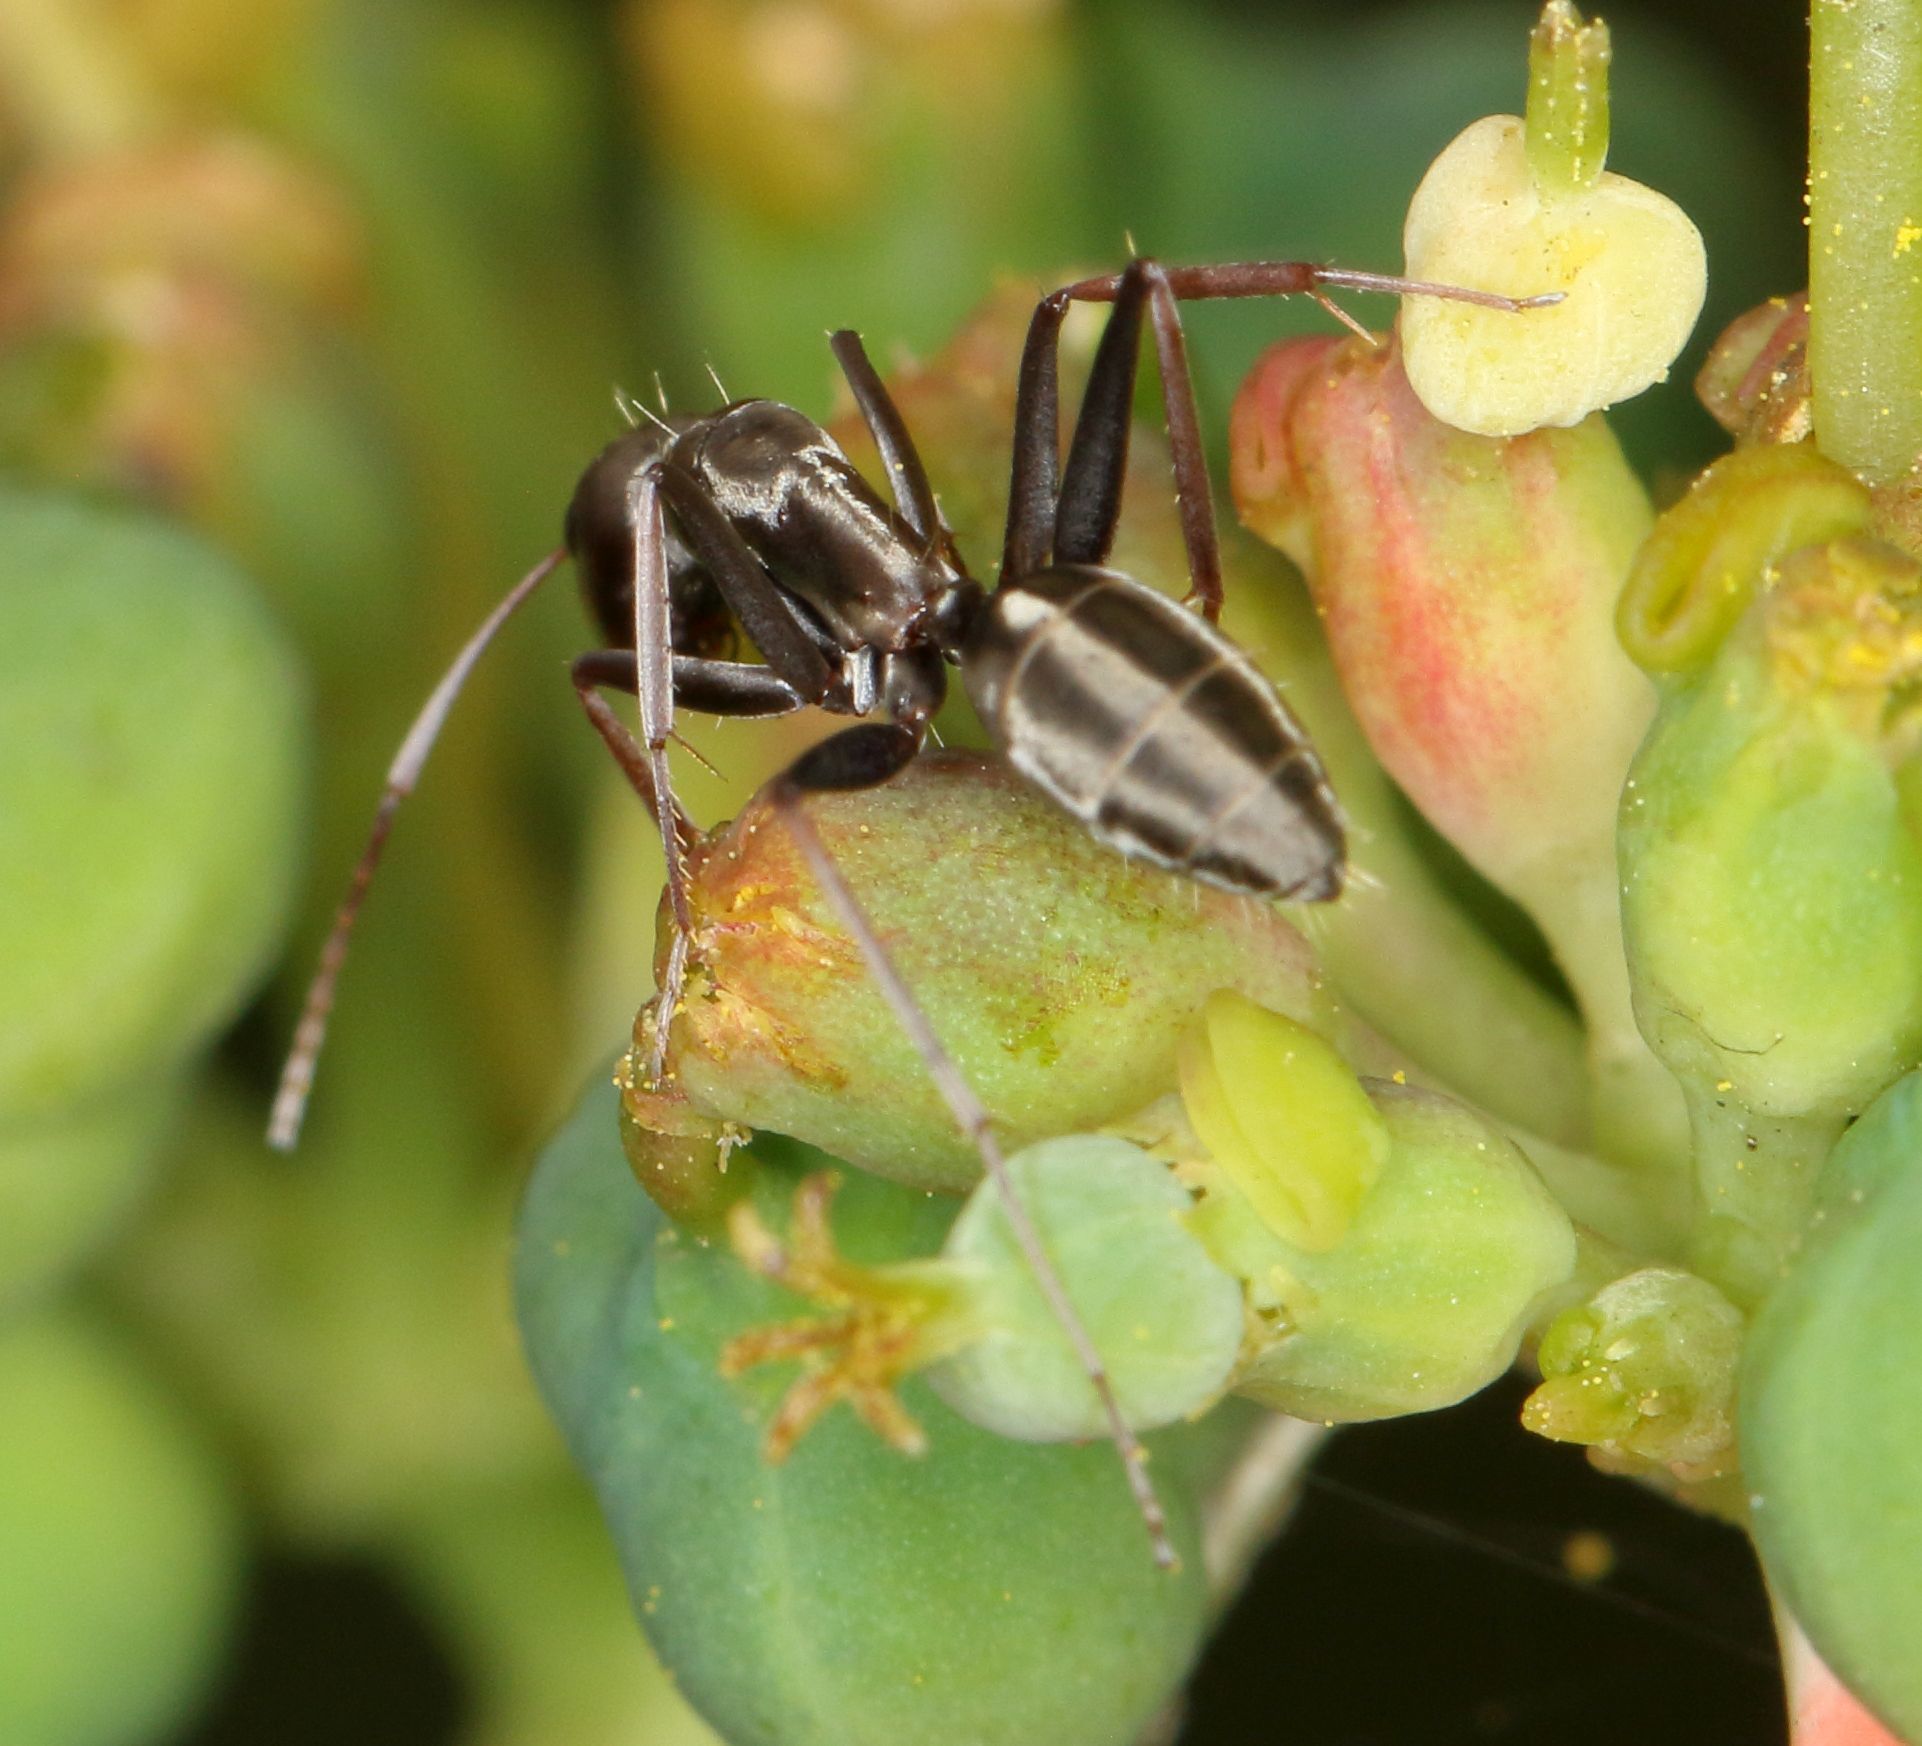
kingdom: Animalia
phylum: Arthropoda
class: Insecta
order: Hymenoptera
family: Formicidae
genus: Camponotus
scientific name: Camponotus vestitus
